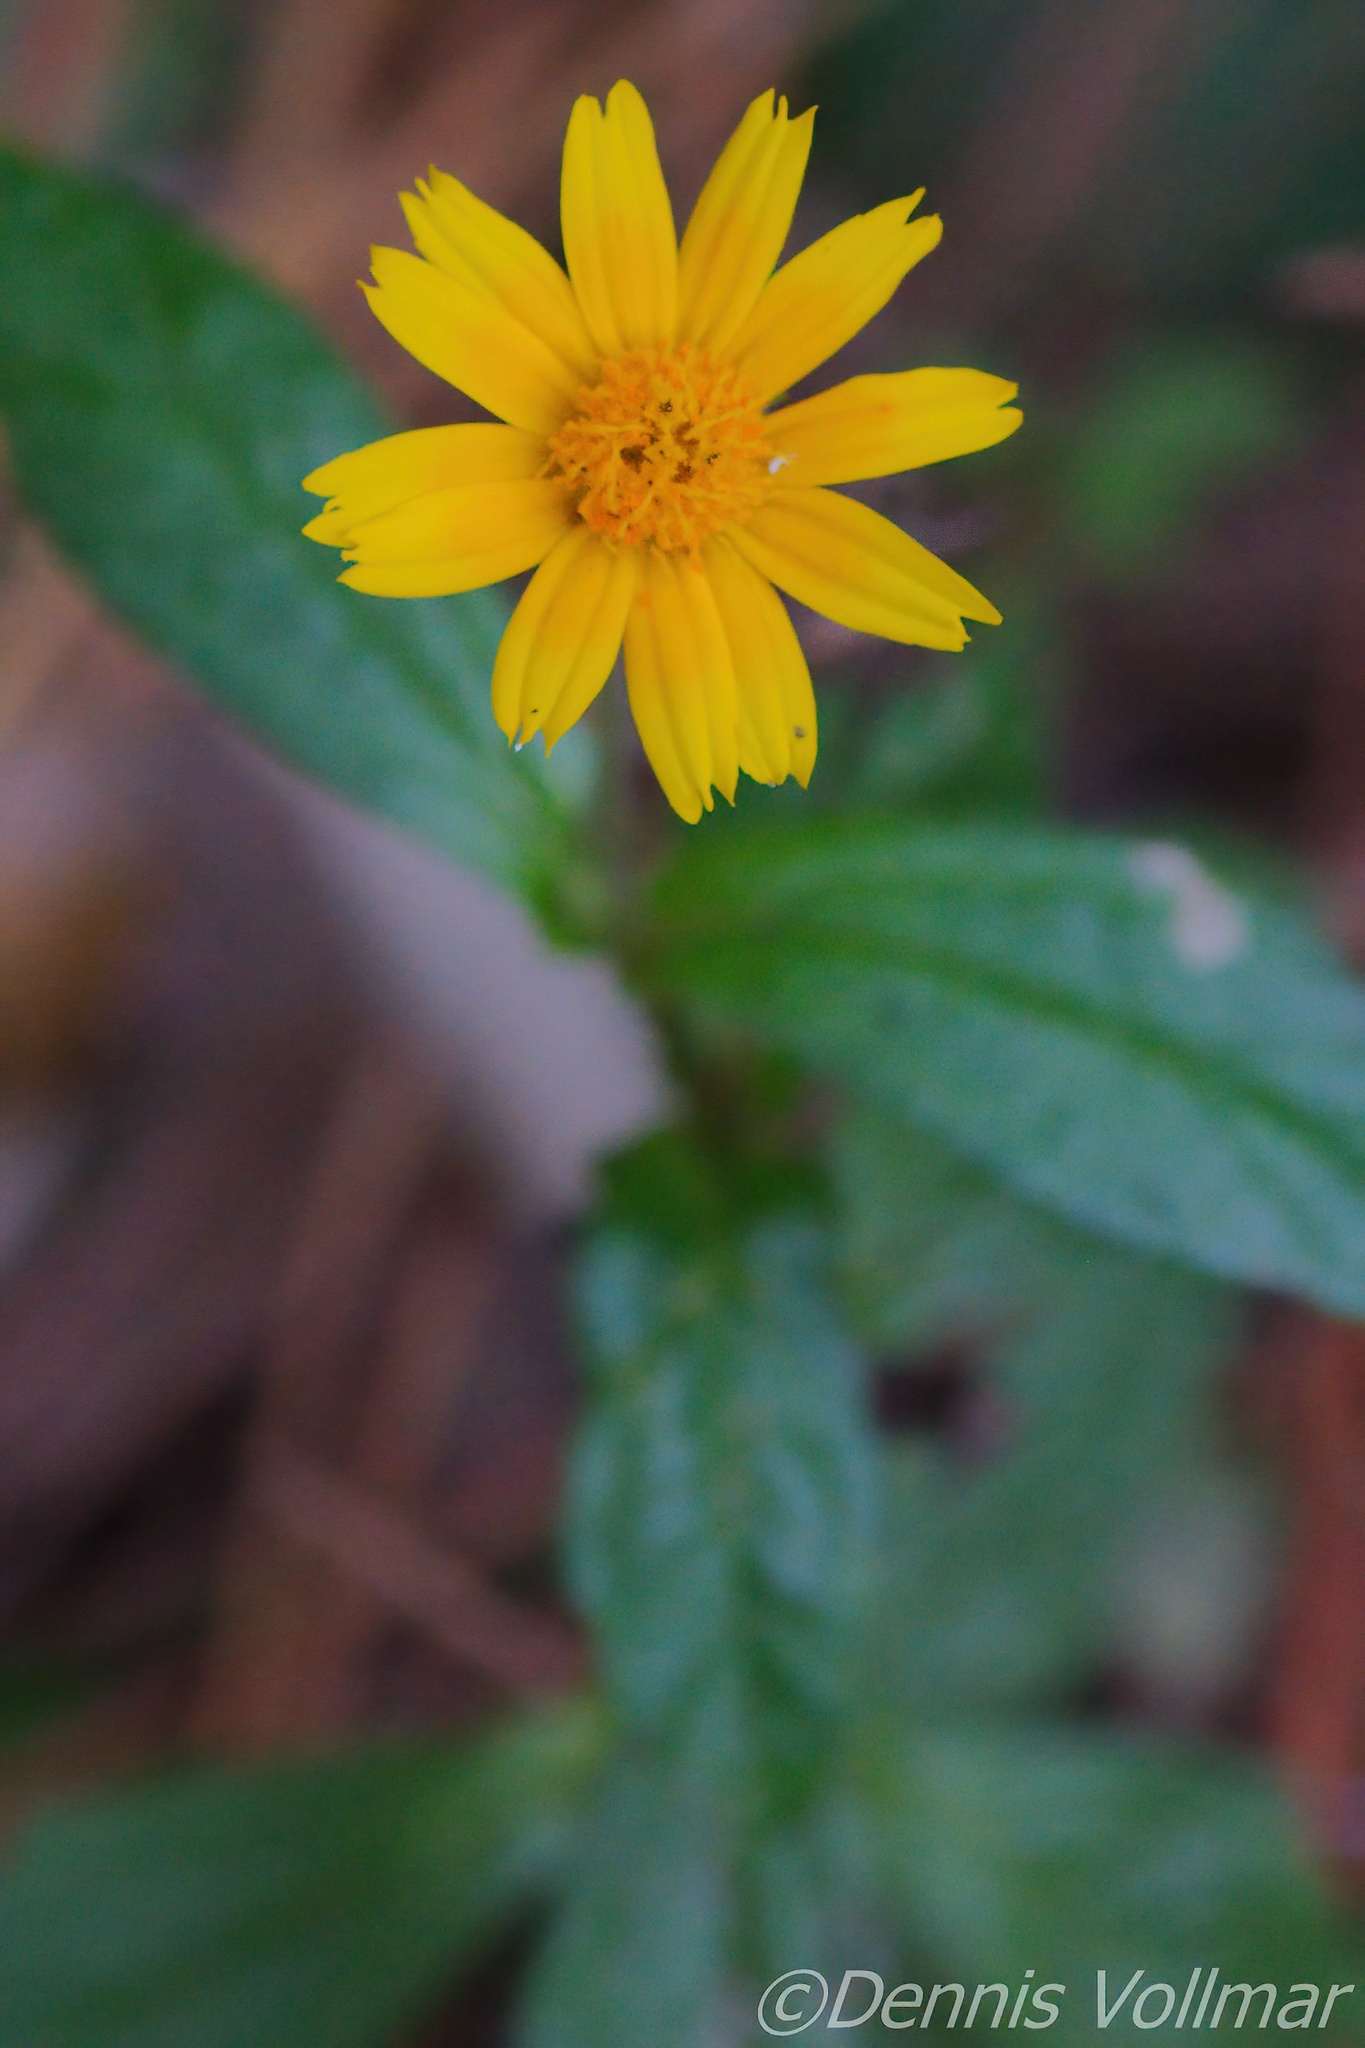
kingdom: Plantae
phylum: Tracheophyta
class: Magnoliopsida
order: Asterales
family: Asteraceae
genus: Sphagneticola
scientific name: Sphagneticola trilobata
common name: Bay biscayne creeping-oxeye
